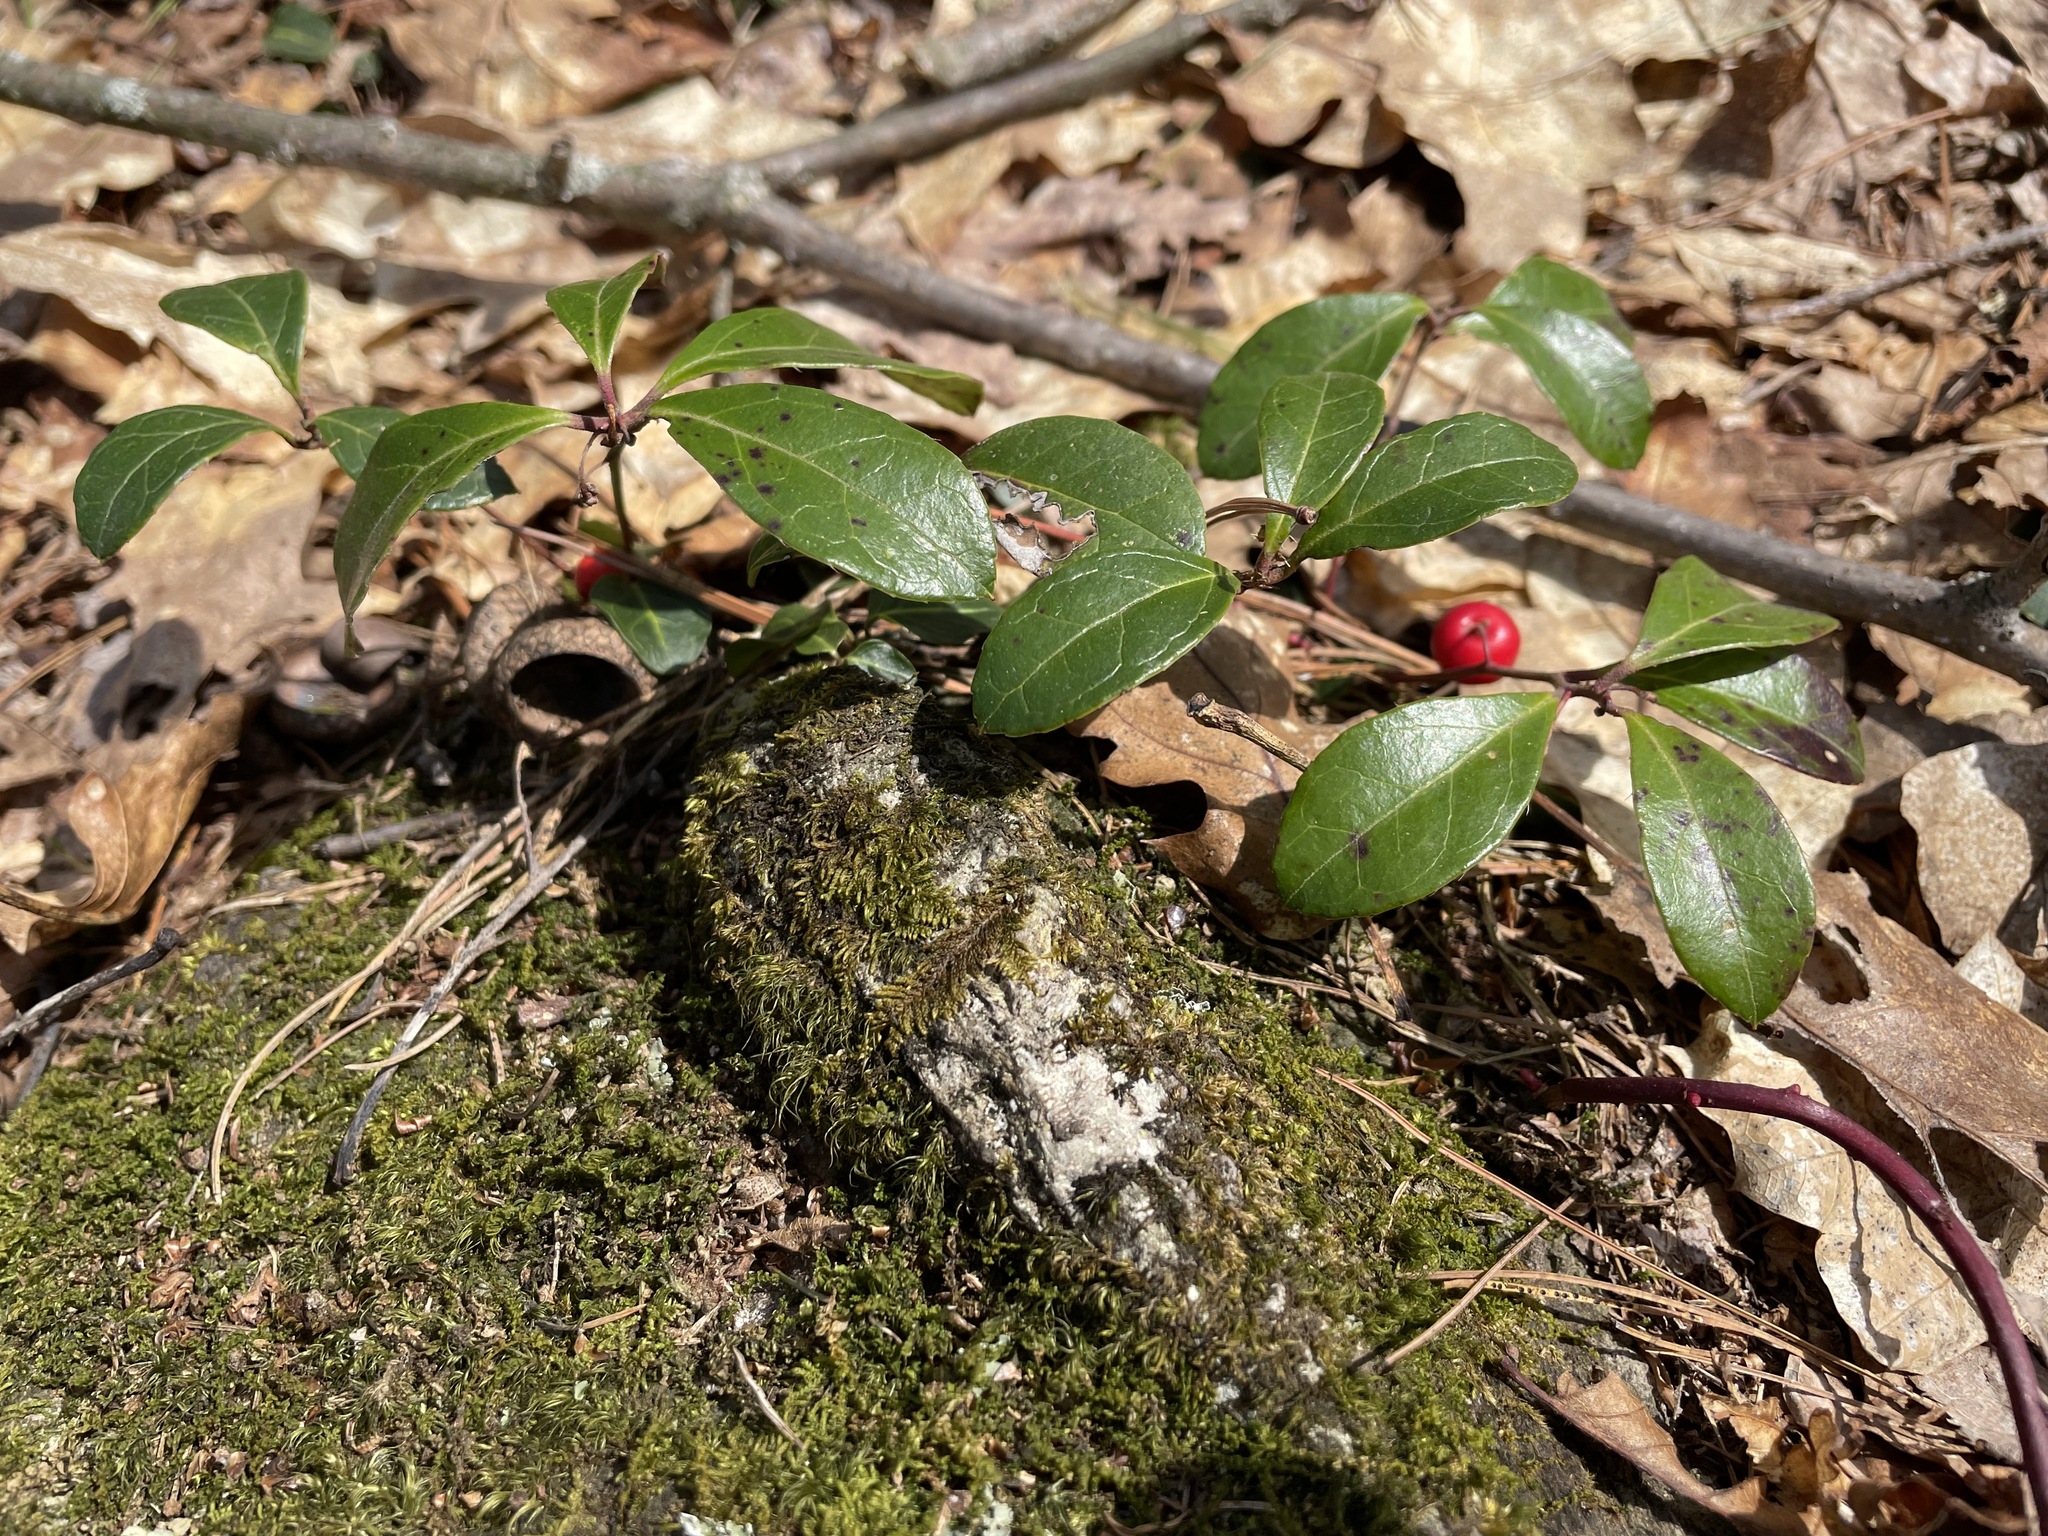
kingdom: Plantae
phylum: Tracheophyta
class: Magnoliopsida
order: Ericales
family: Ericaceae
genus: Gaultheria
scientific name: Gaultheria procumbens
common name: Checkerberry
